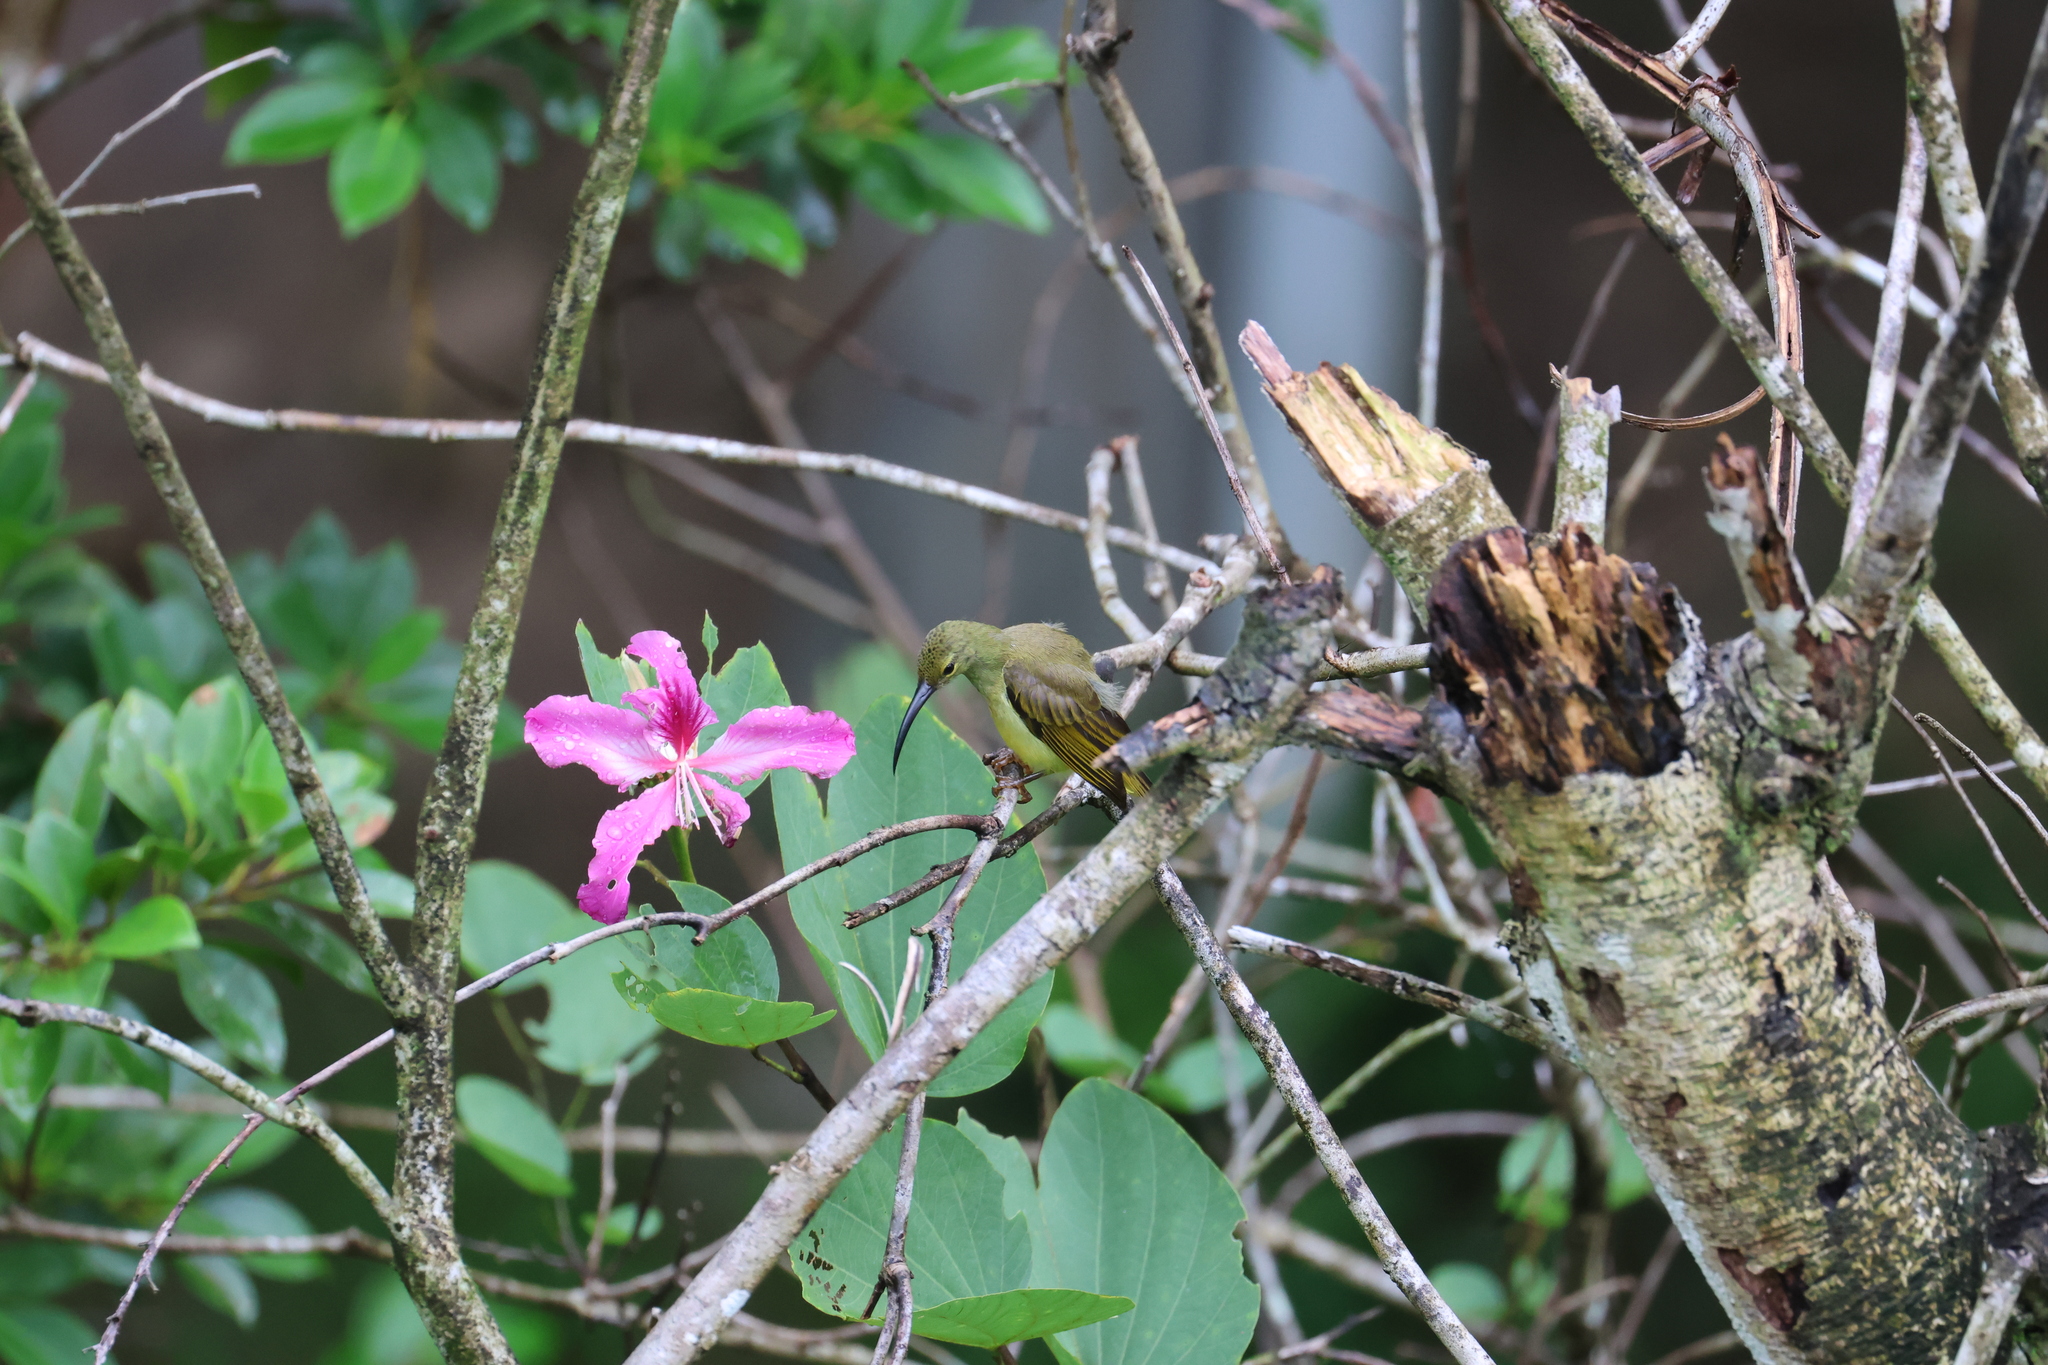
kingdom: Animalia
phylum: Chordata
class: Aves
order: Passeriformes
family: Nectariniidae
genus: Arachnothera
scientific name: Arachnothera crassirostris
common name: Thick-billed spiderhunter
